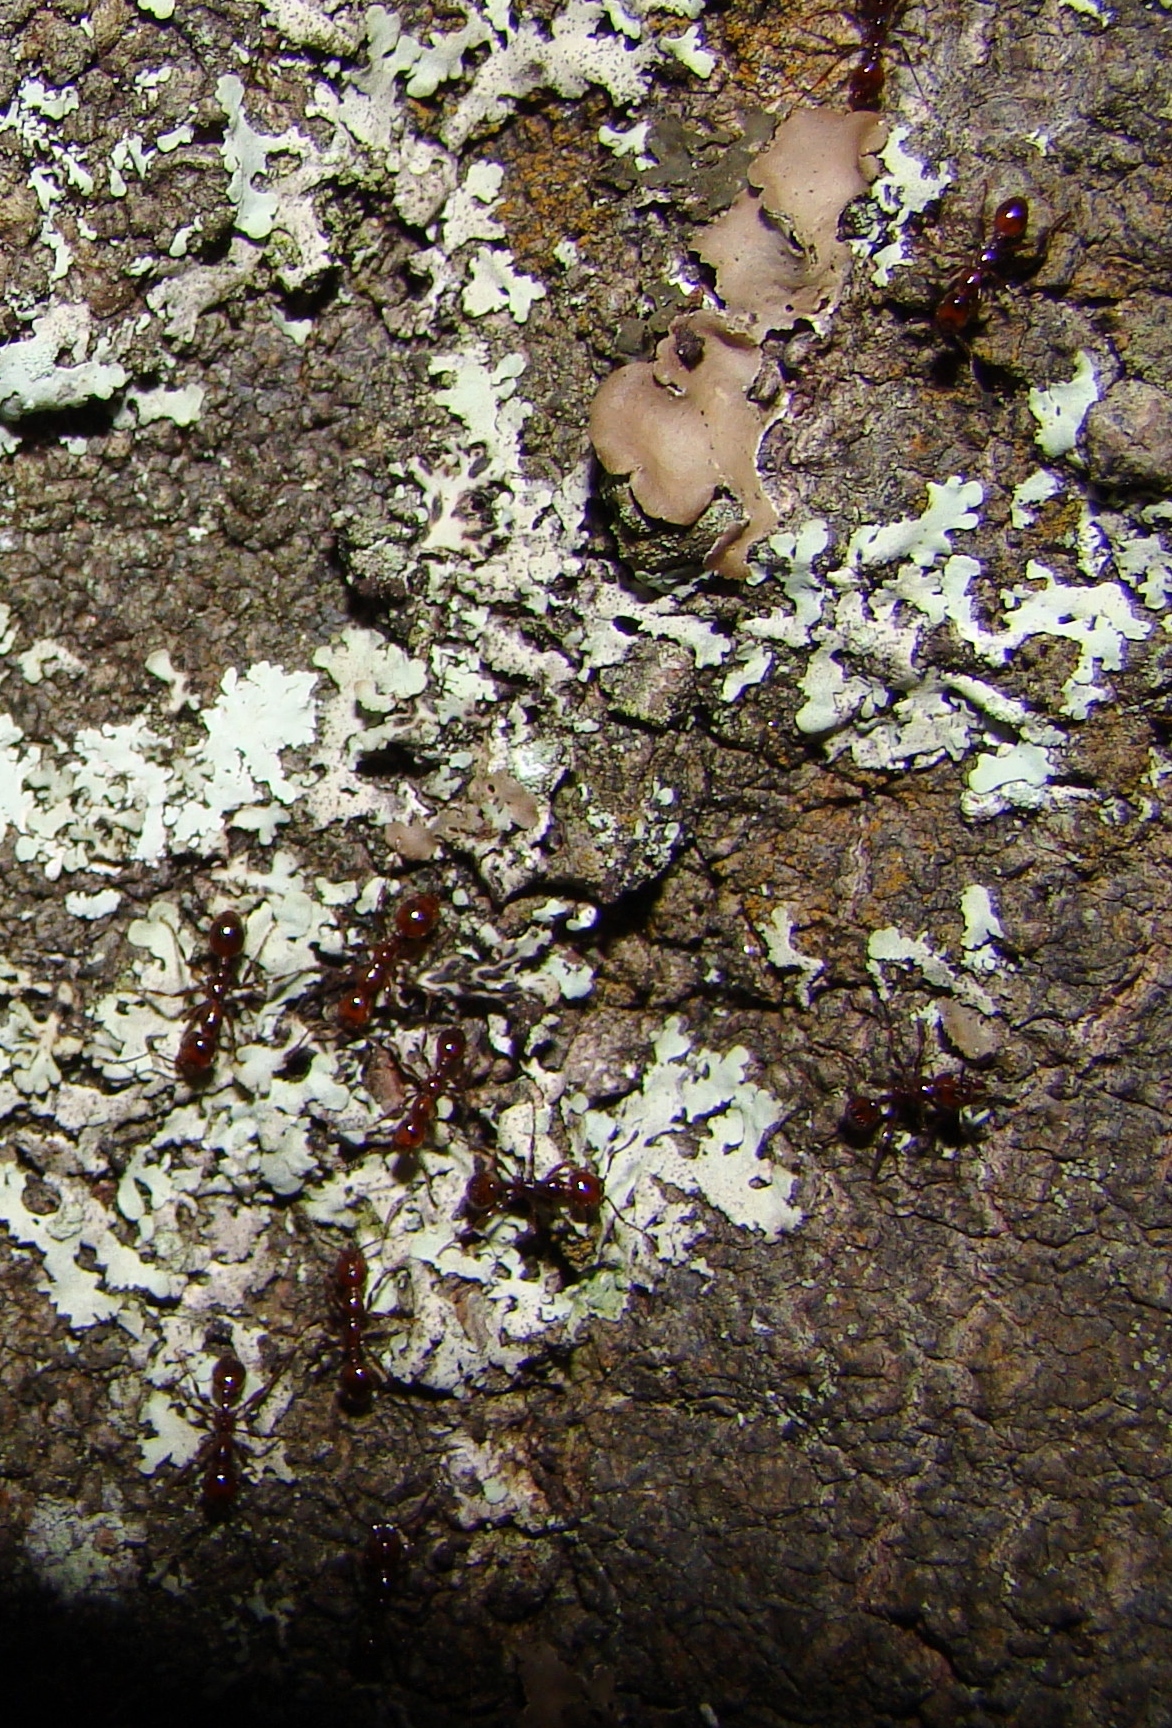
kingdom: Animalia
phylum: Arthropoda
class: Insecta
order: Hymenoptera
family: Formicidae
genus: Huberia
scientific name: Huberia striata
